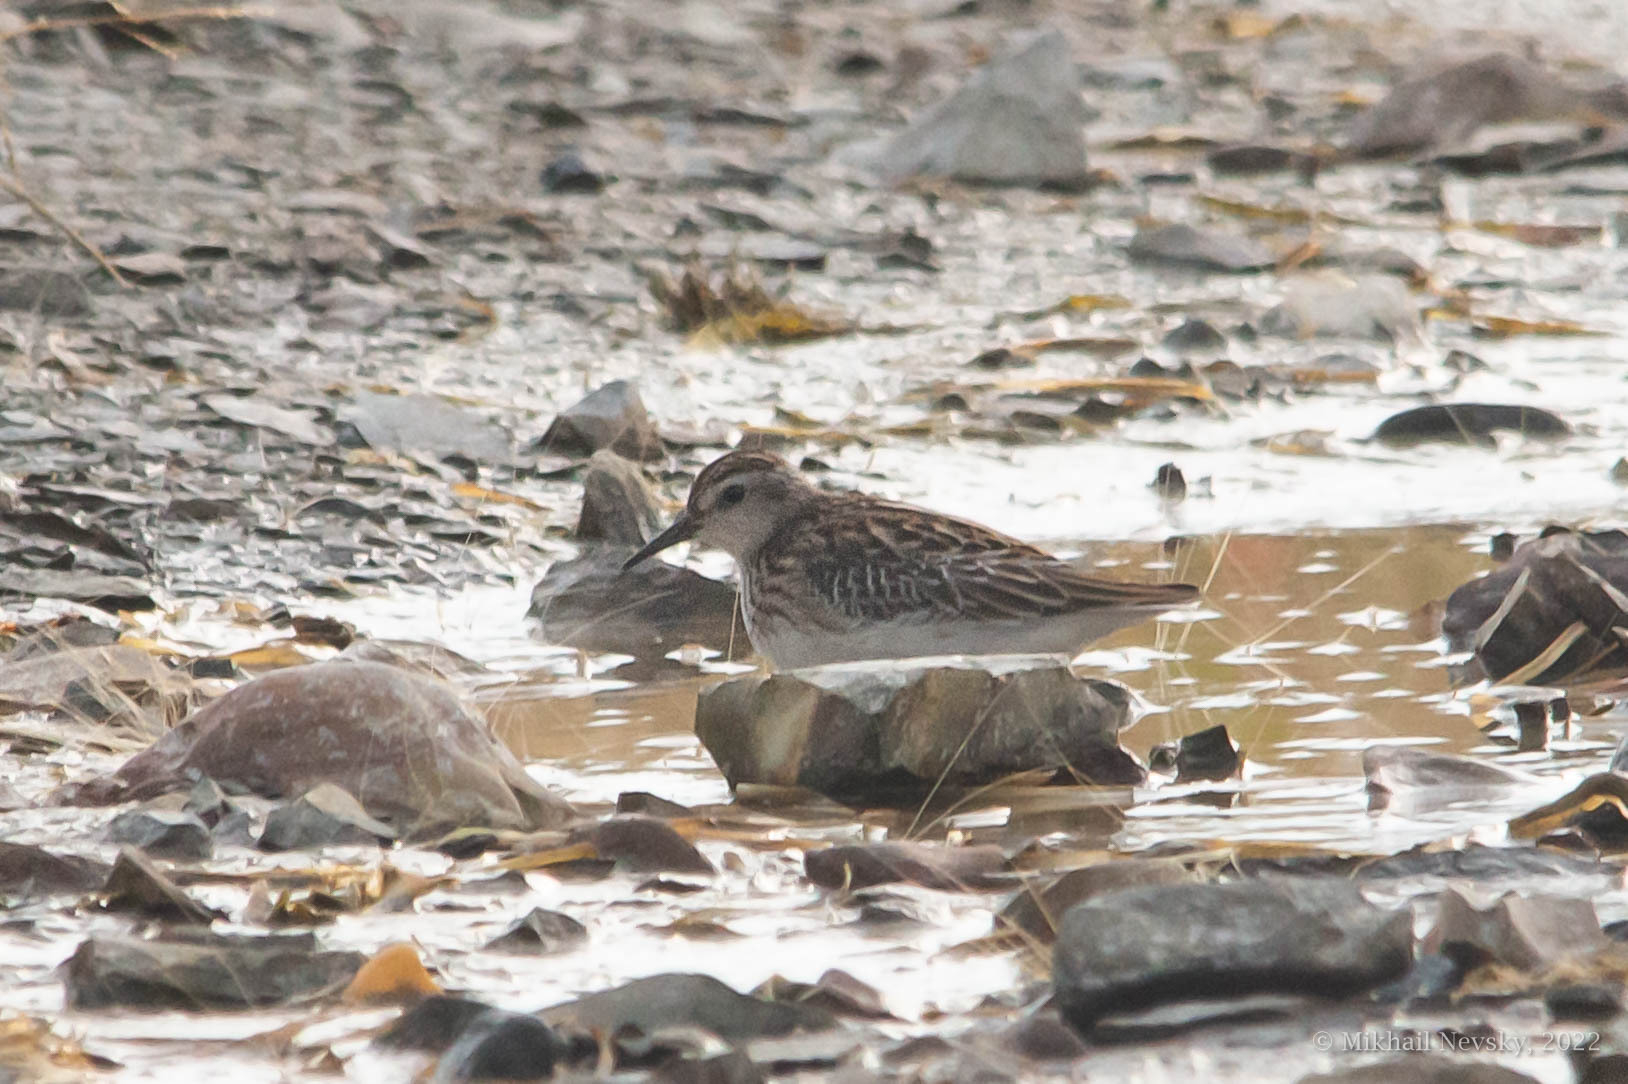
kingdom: Animalia
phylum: Chordata
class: Aves
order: Charadriiformes
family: Scolopacidae
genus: Calidris
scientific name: Calidris subminuta
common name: Long-toed stint
